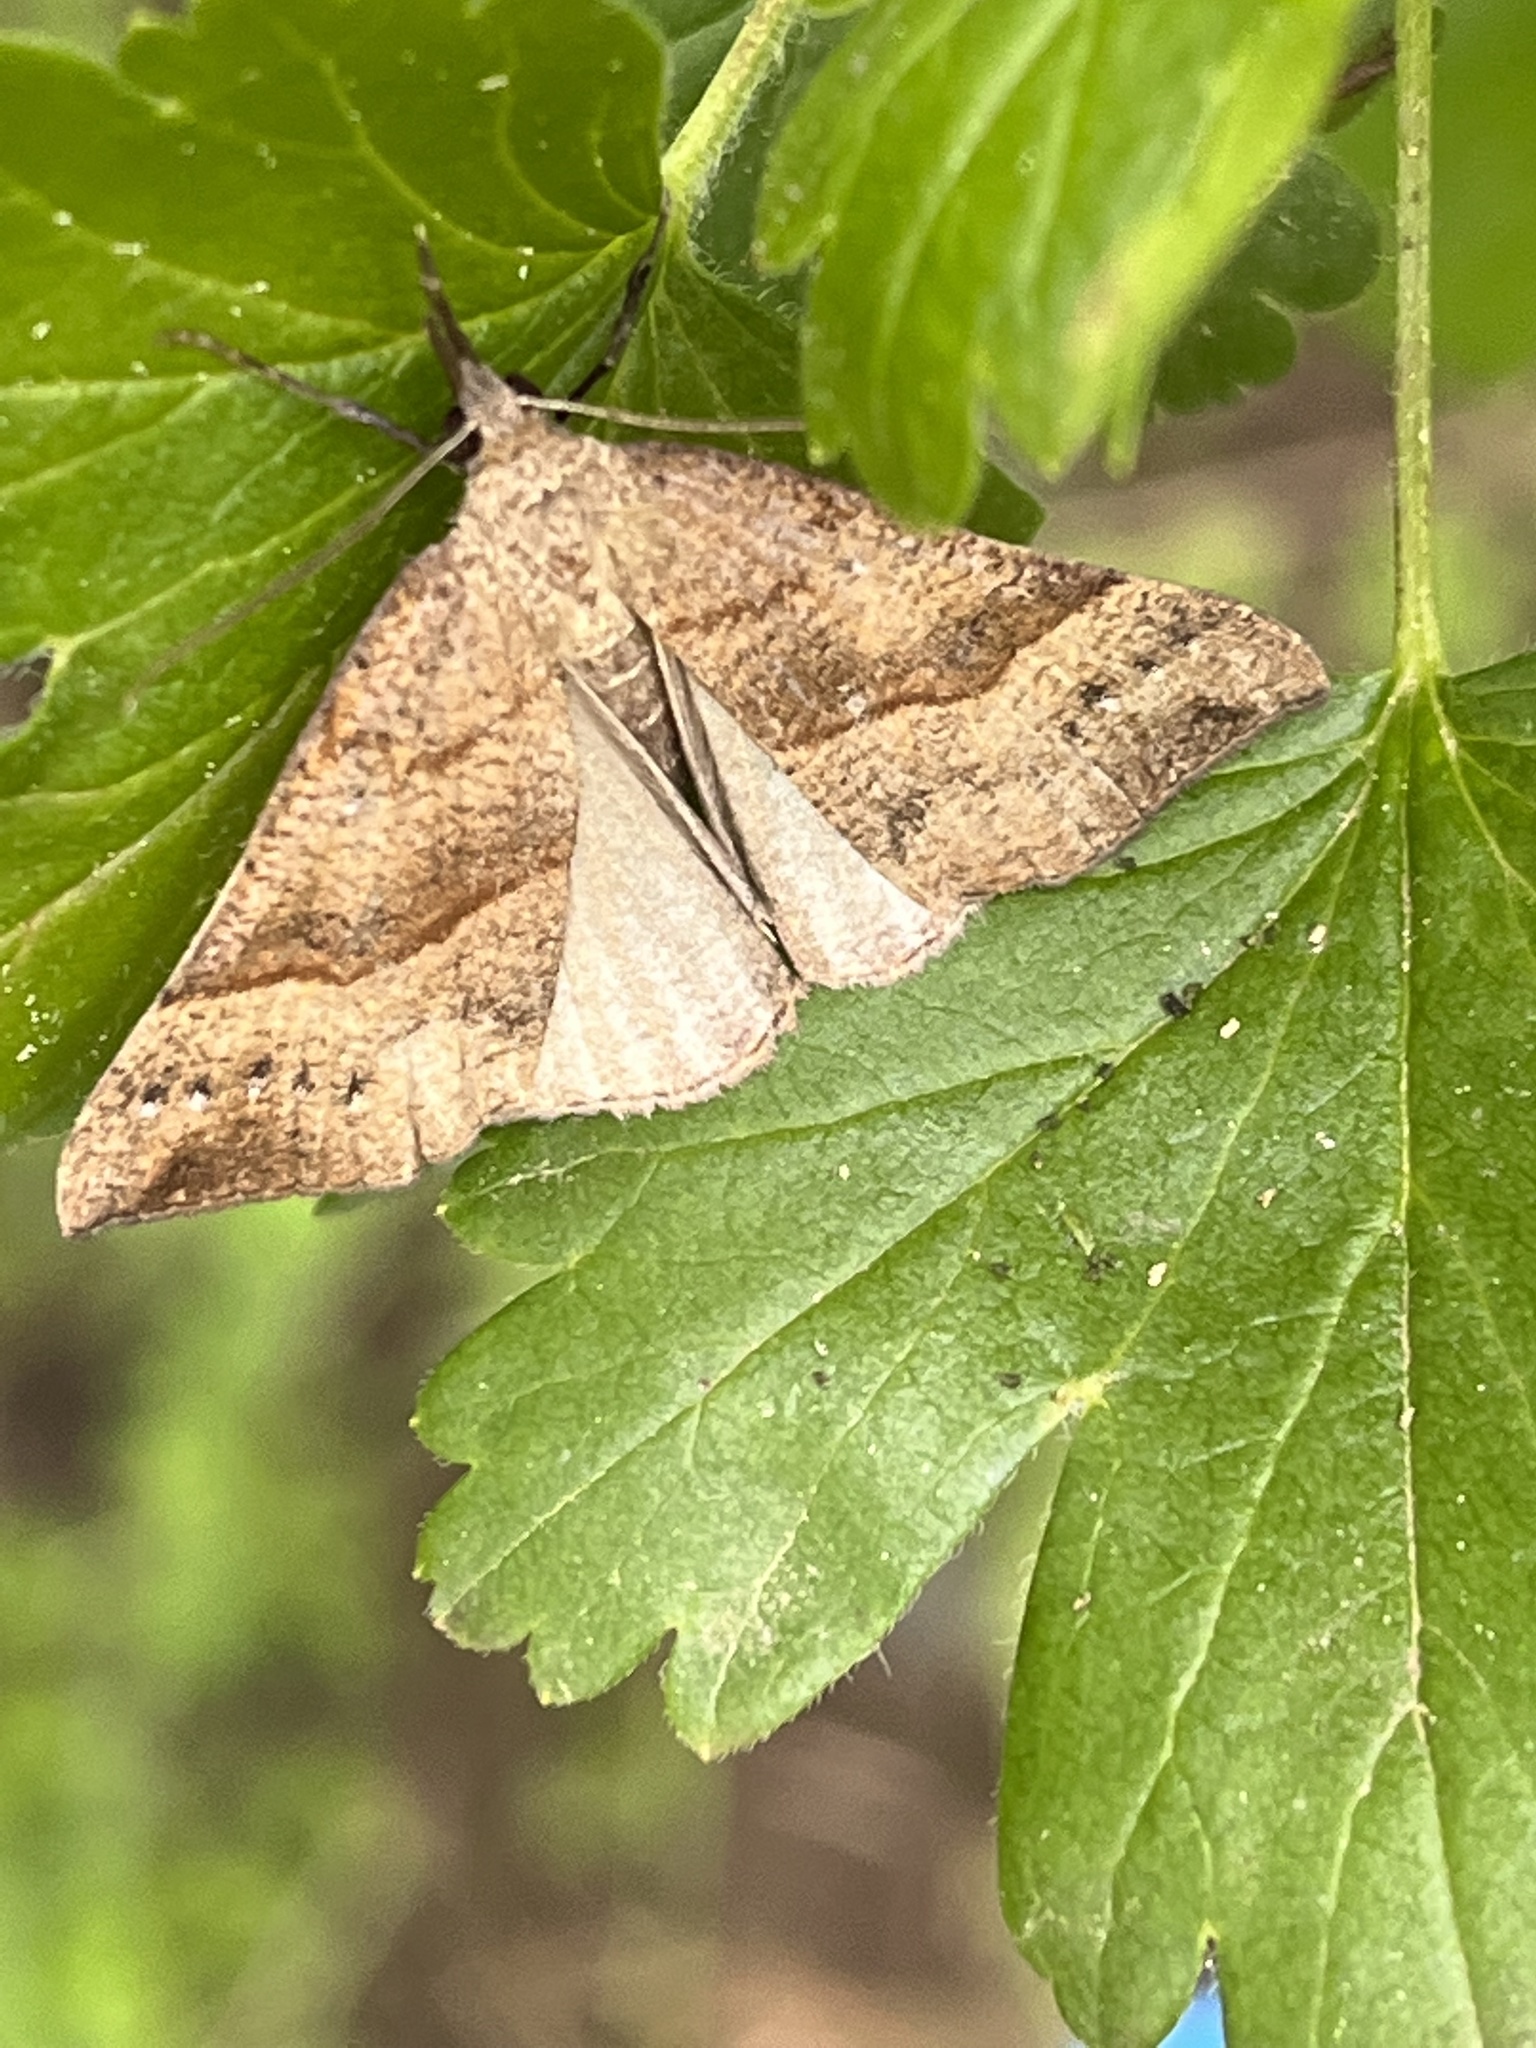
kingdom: Animalia
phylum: Arthropoda
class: Insecta
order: Lepidoptera
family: Erebidae
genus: Hypena
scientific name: Hypena proboscidalis
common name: Snout
